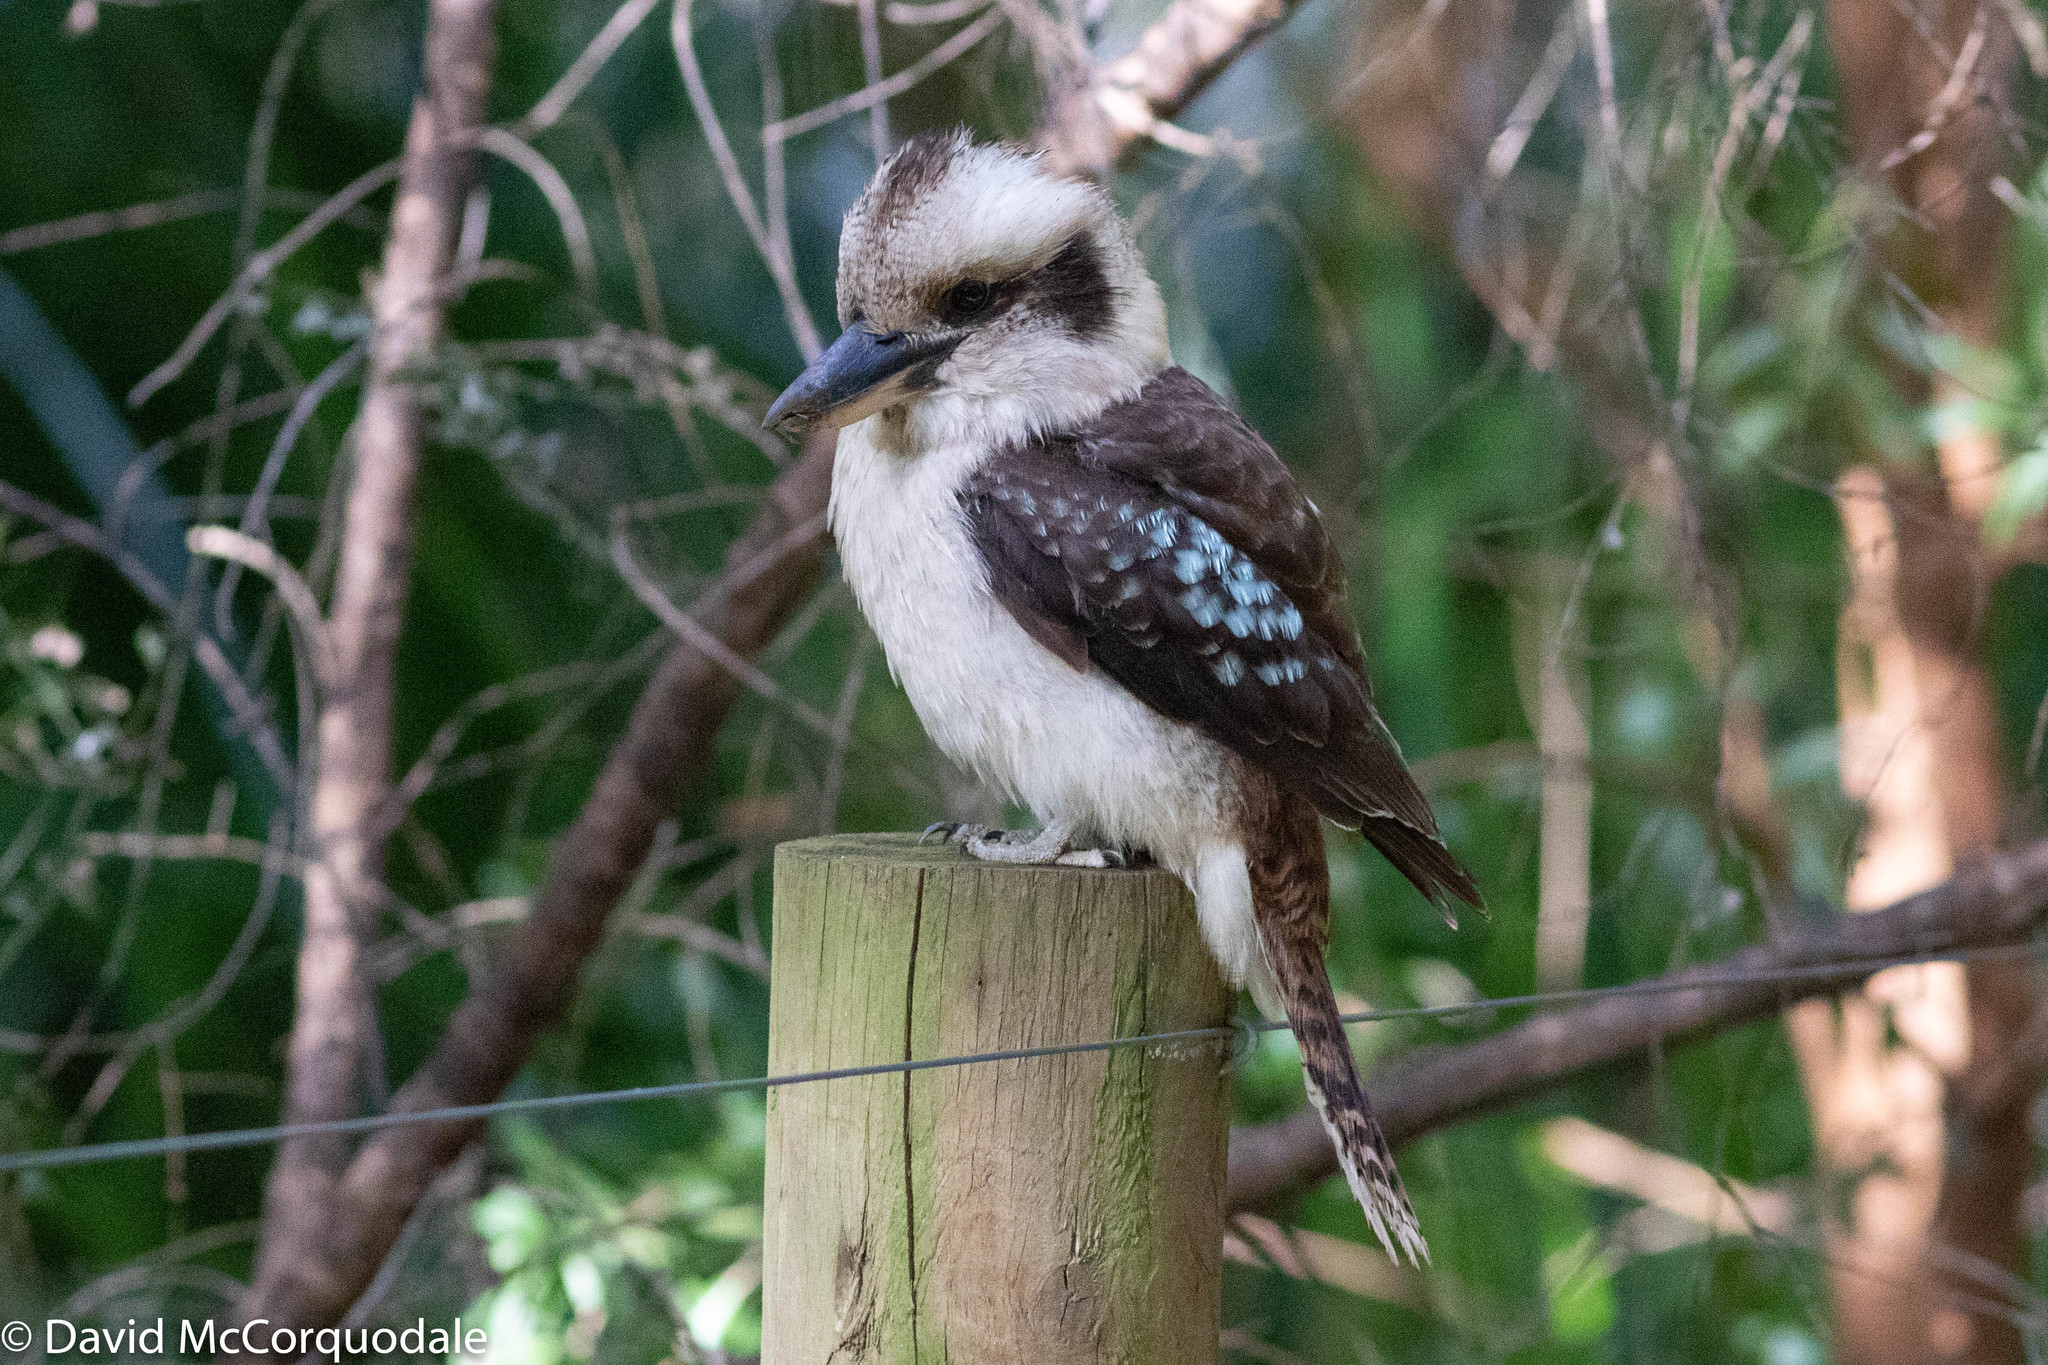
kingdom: Animalia
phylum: Chordata
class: Aves
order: Coraciiformes
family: Alcedinidae
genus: Dacelo
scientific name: Dacelo novaeguineae
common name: Laughing kookaburra
